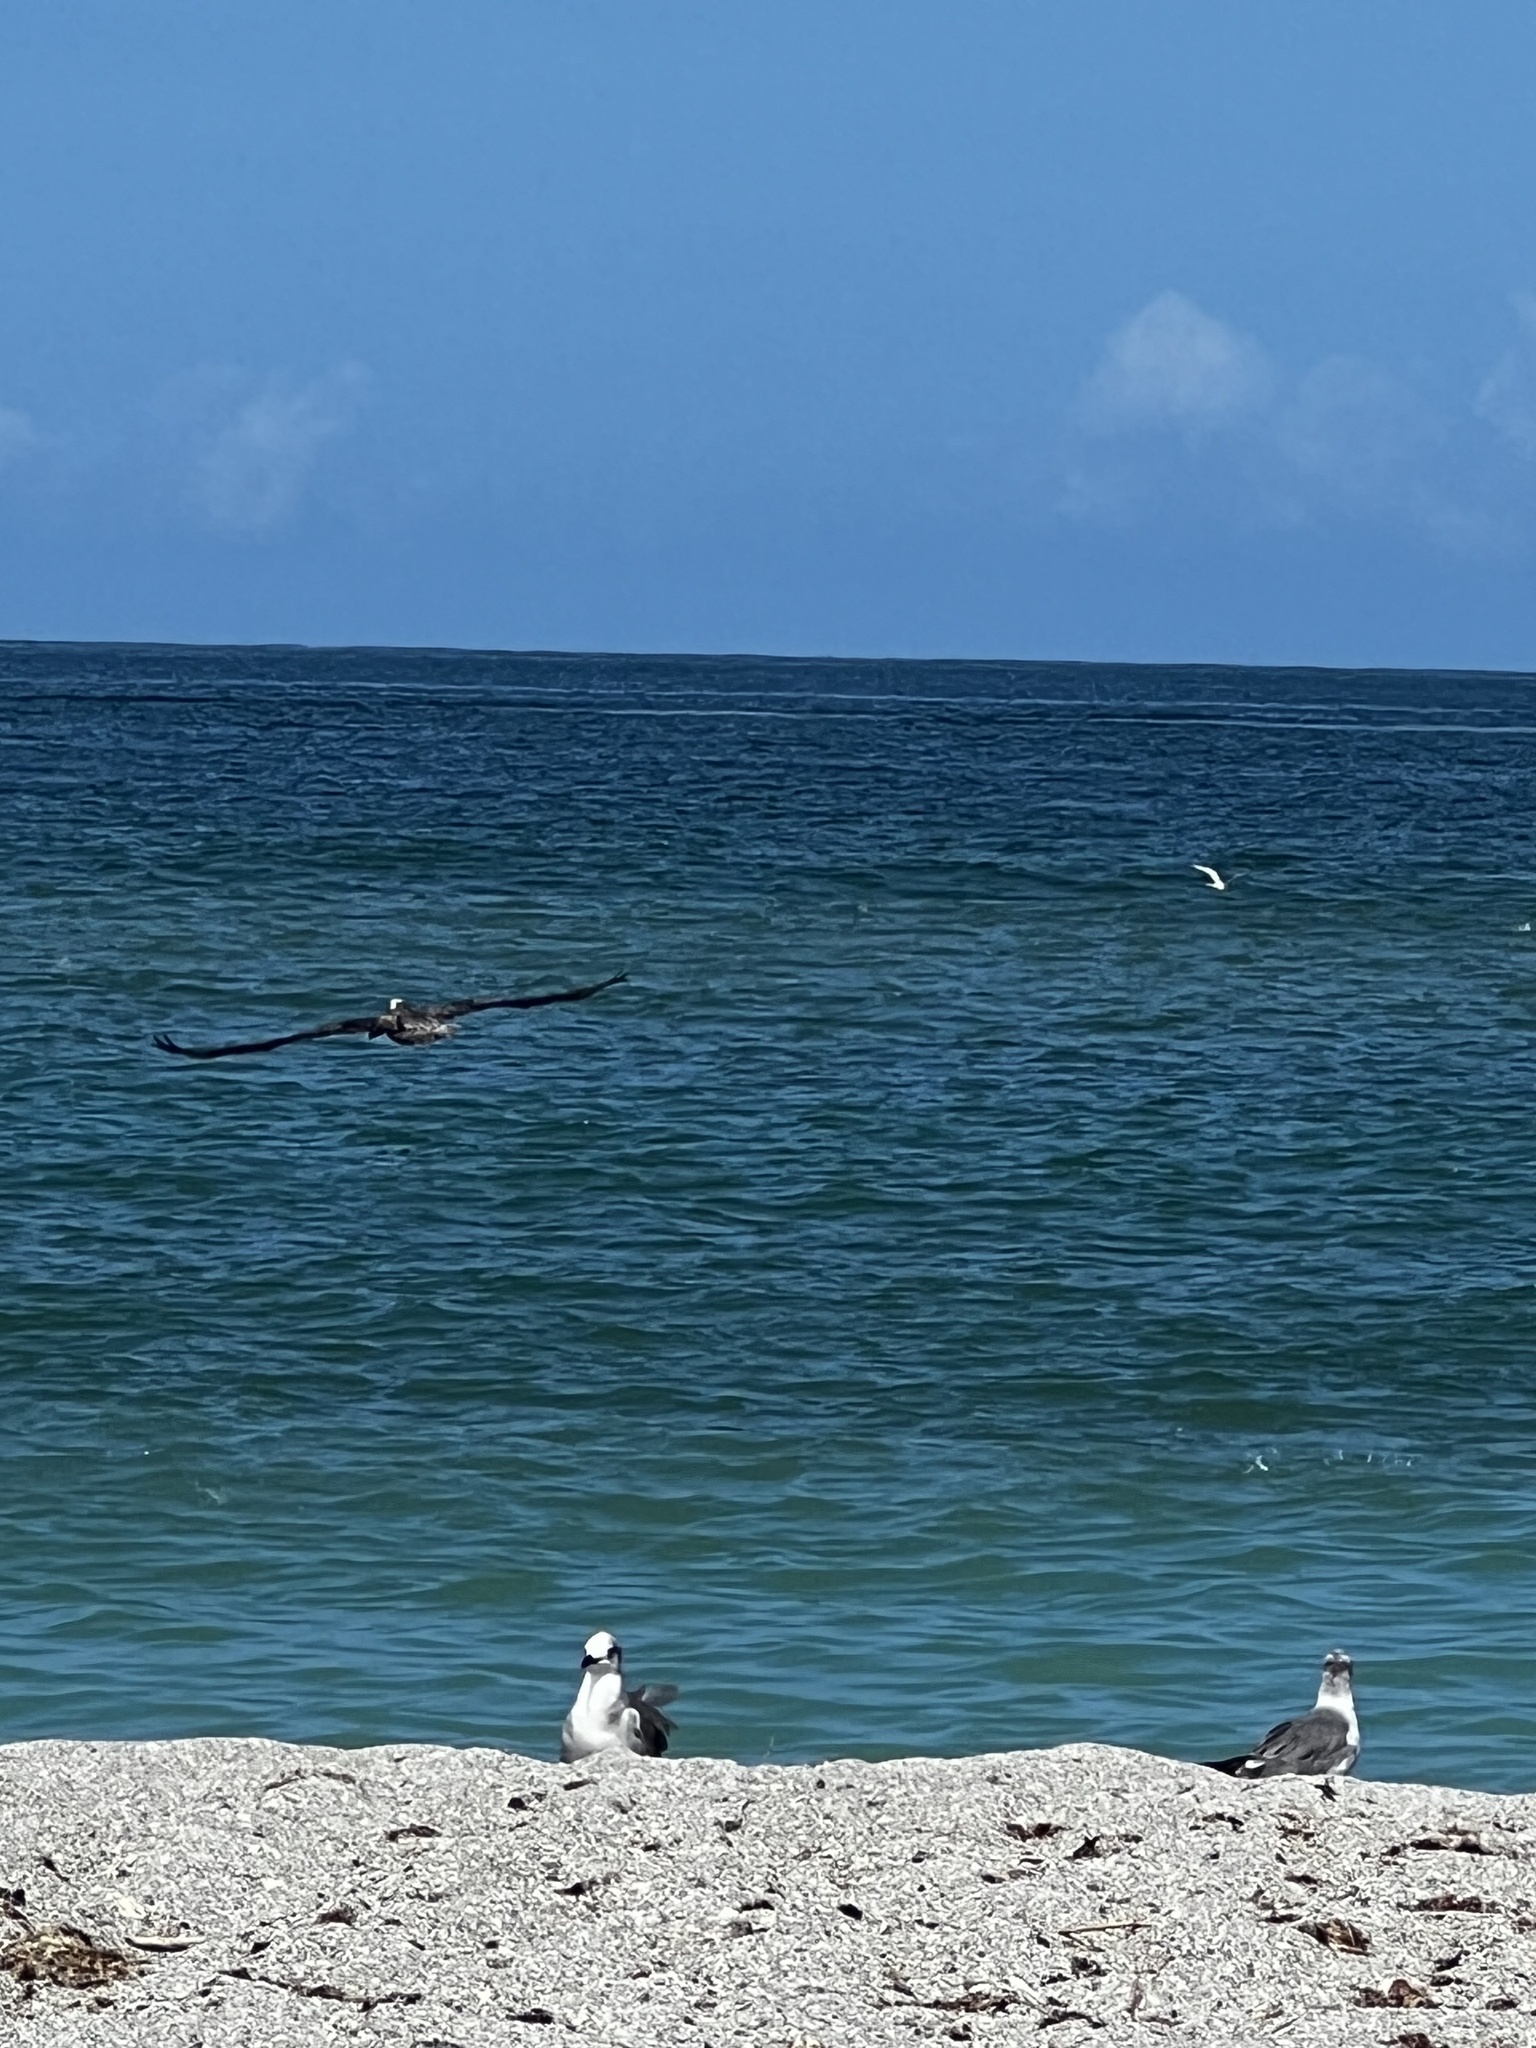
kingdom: Animalia
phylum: Chordata
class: Aves
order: Pelecaniformes
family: Pelecanidae
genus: Pelecanus
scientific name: Pelecanus occidentalis
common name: Brown pelican
